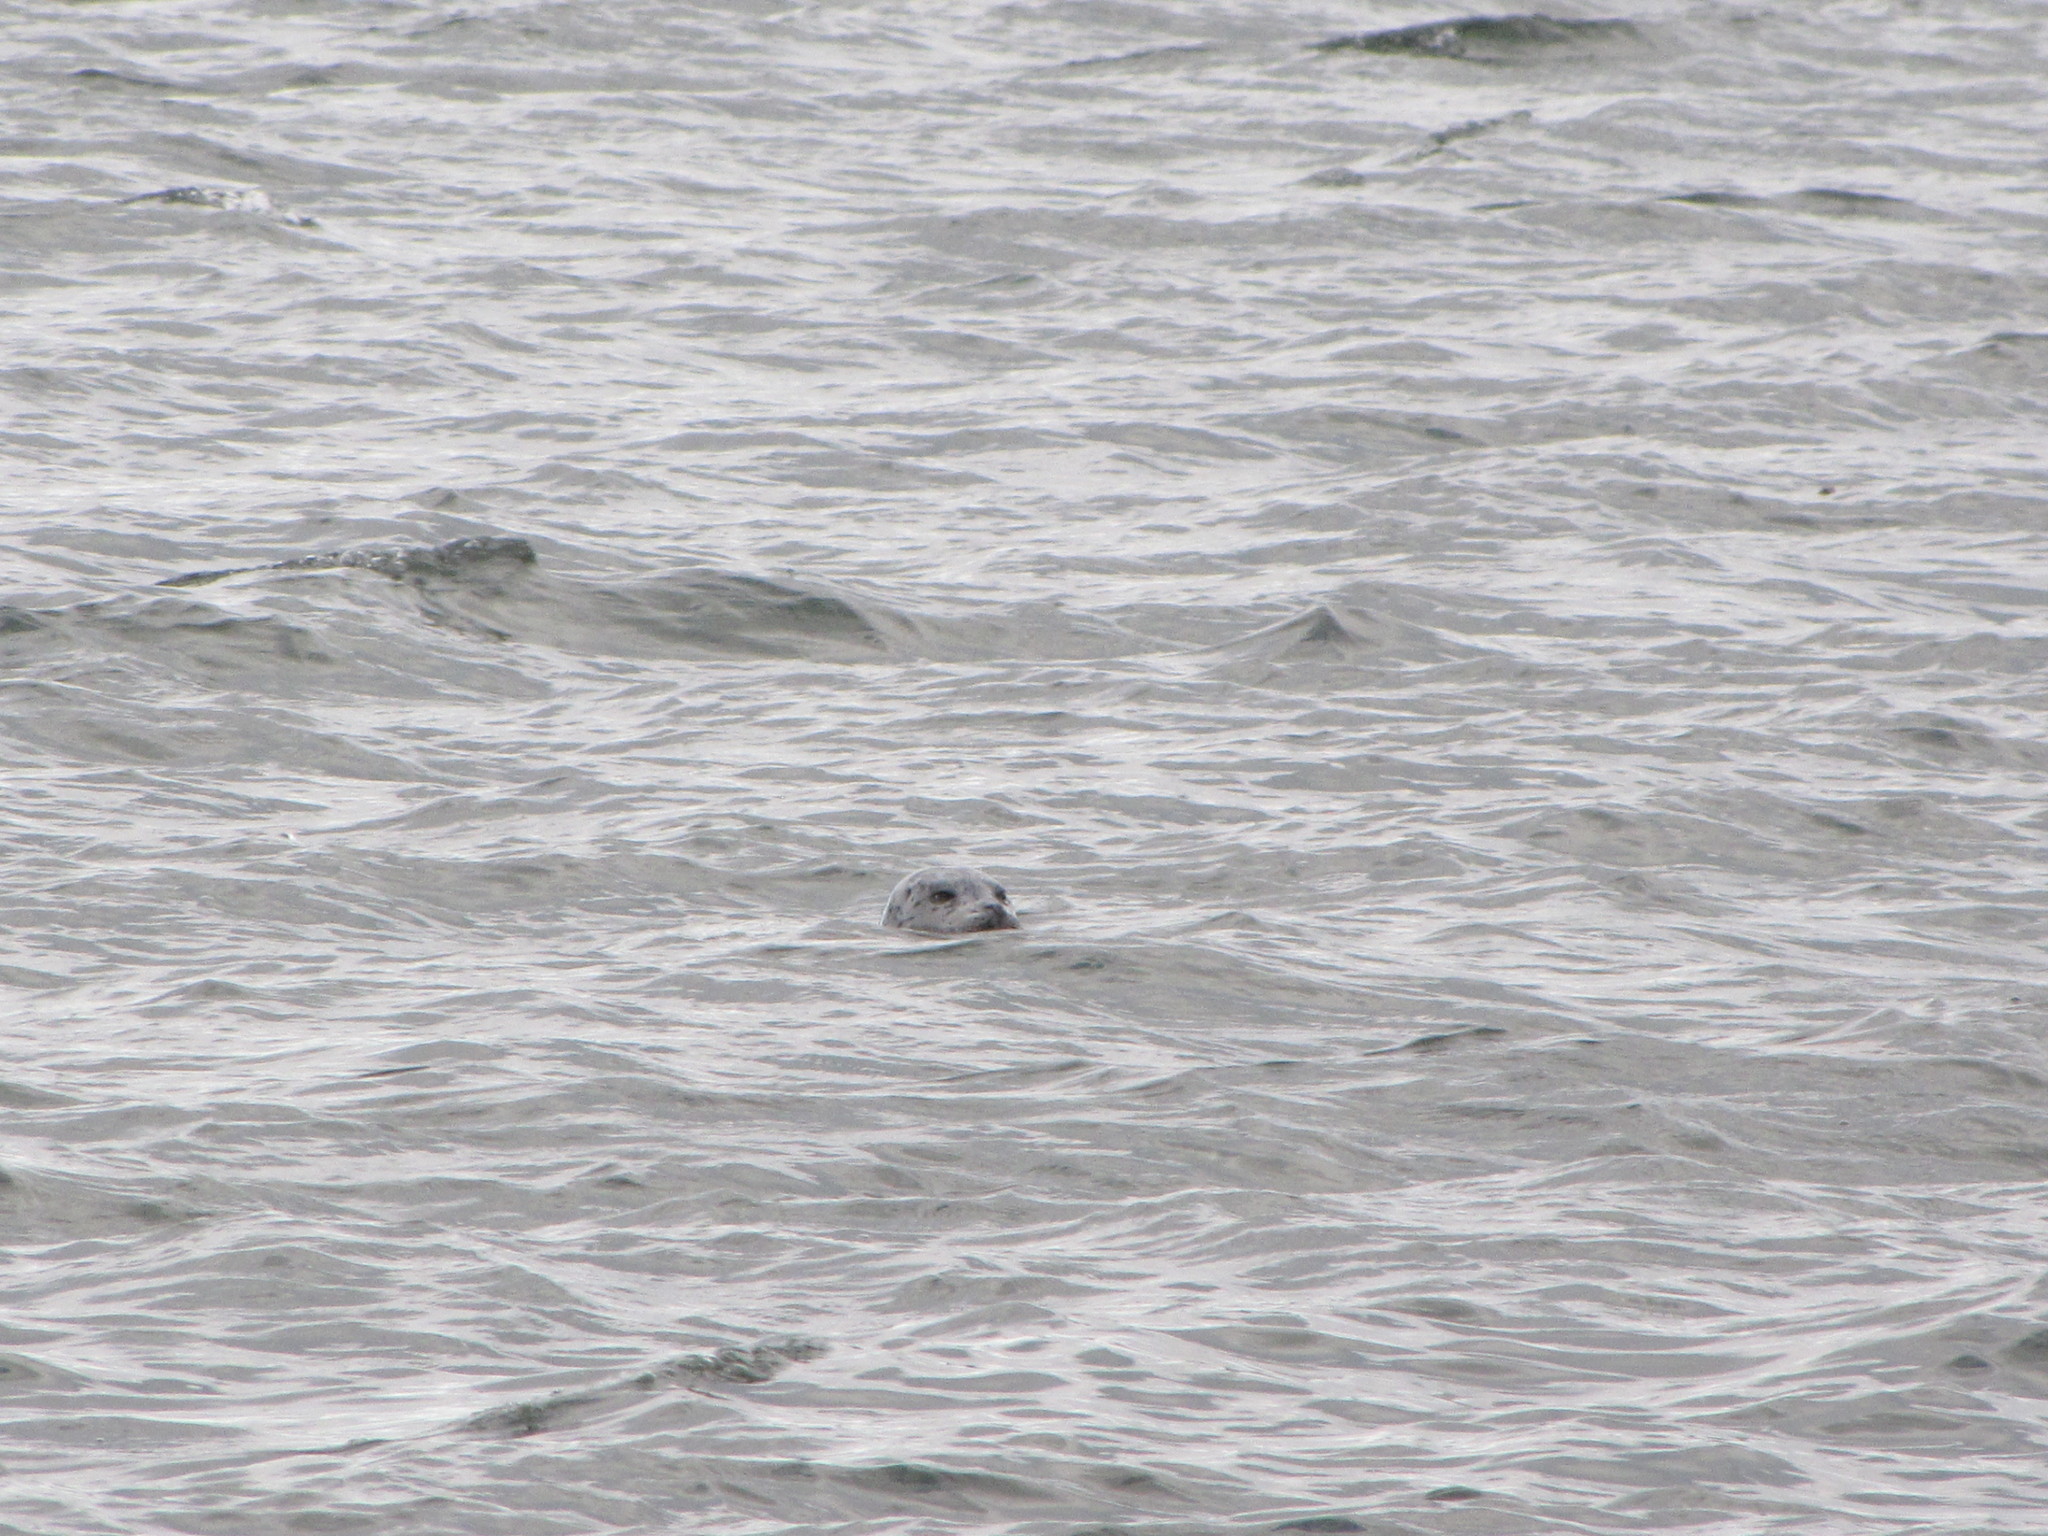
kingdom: Animalia
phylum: Chordata
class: Mammalia
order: Carnivora
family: Phocidae
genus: Phoca
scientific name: Phoca vitulina
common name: Harbor seal
